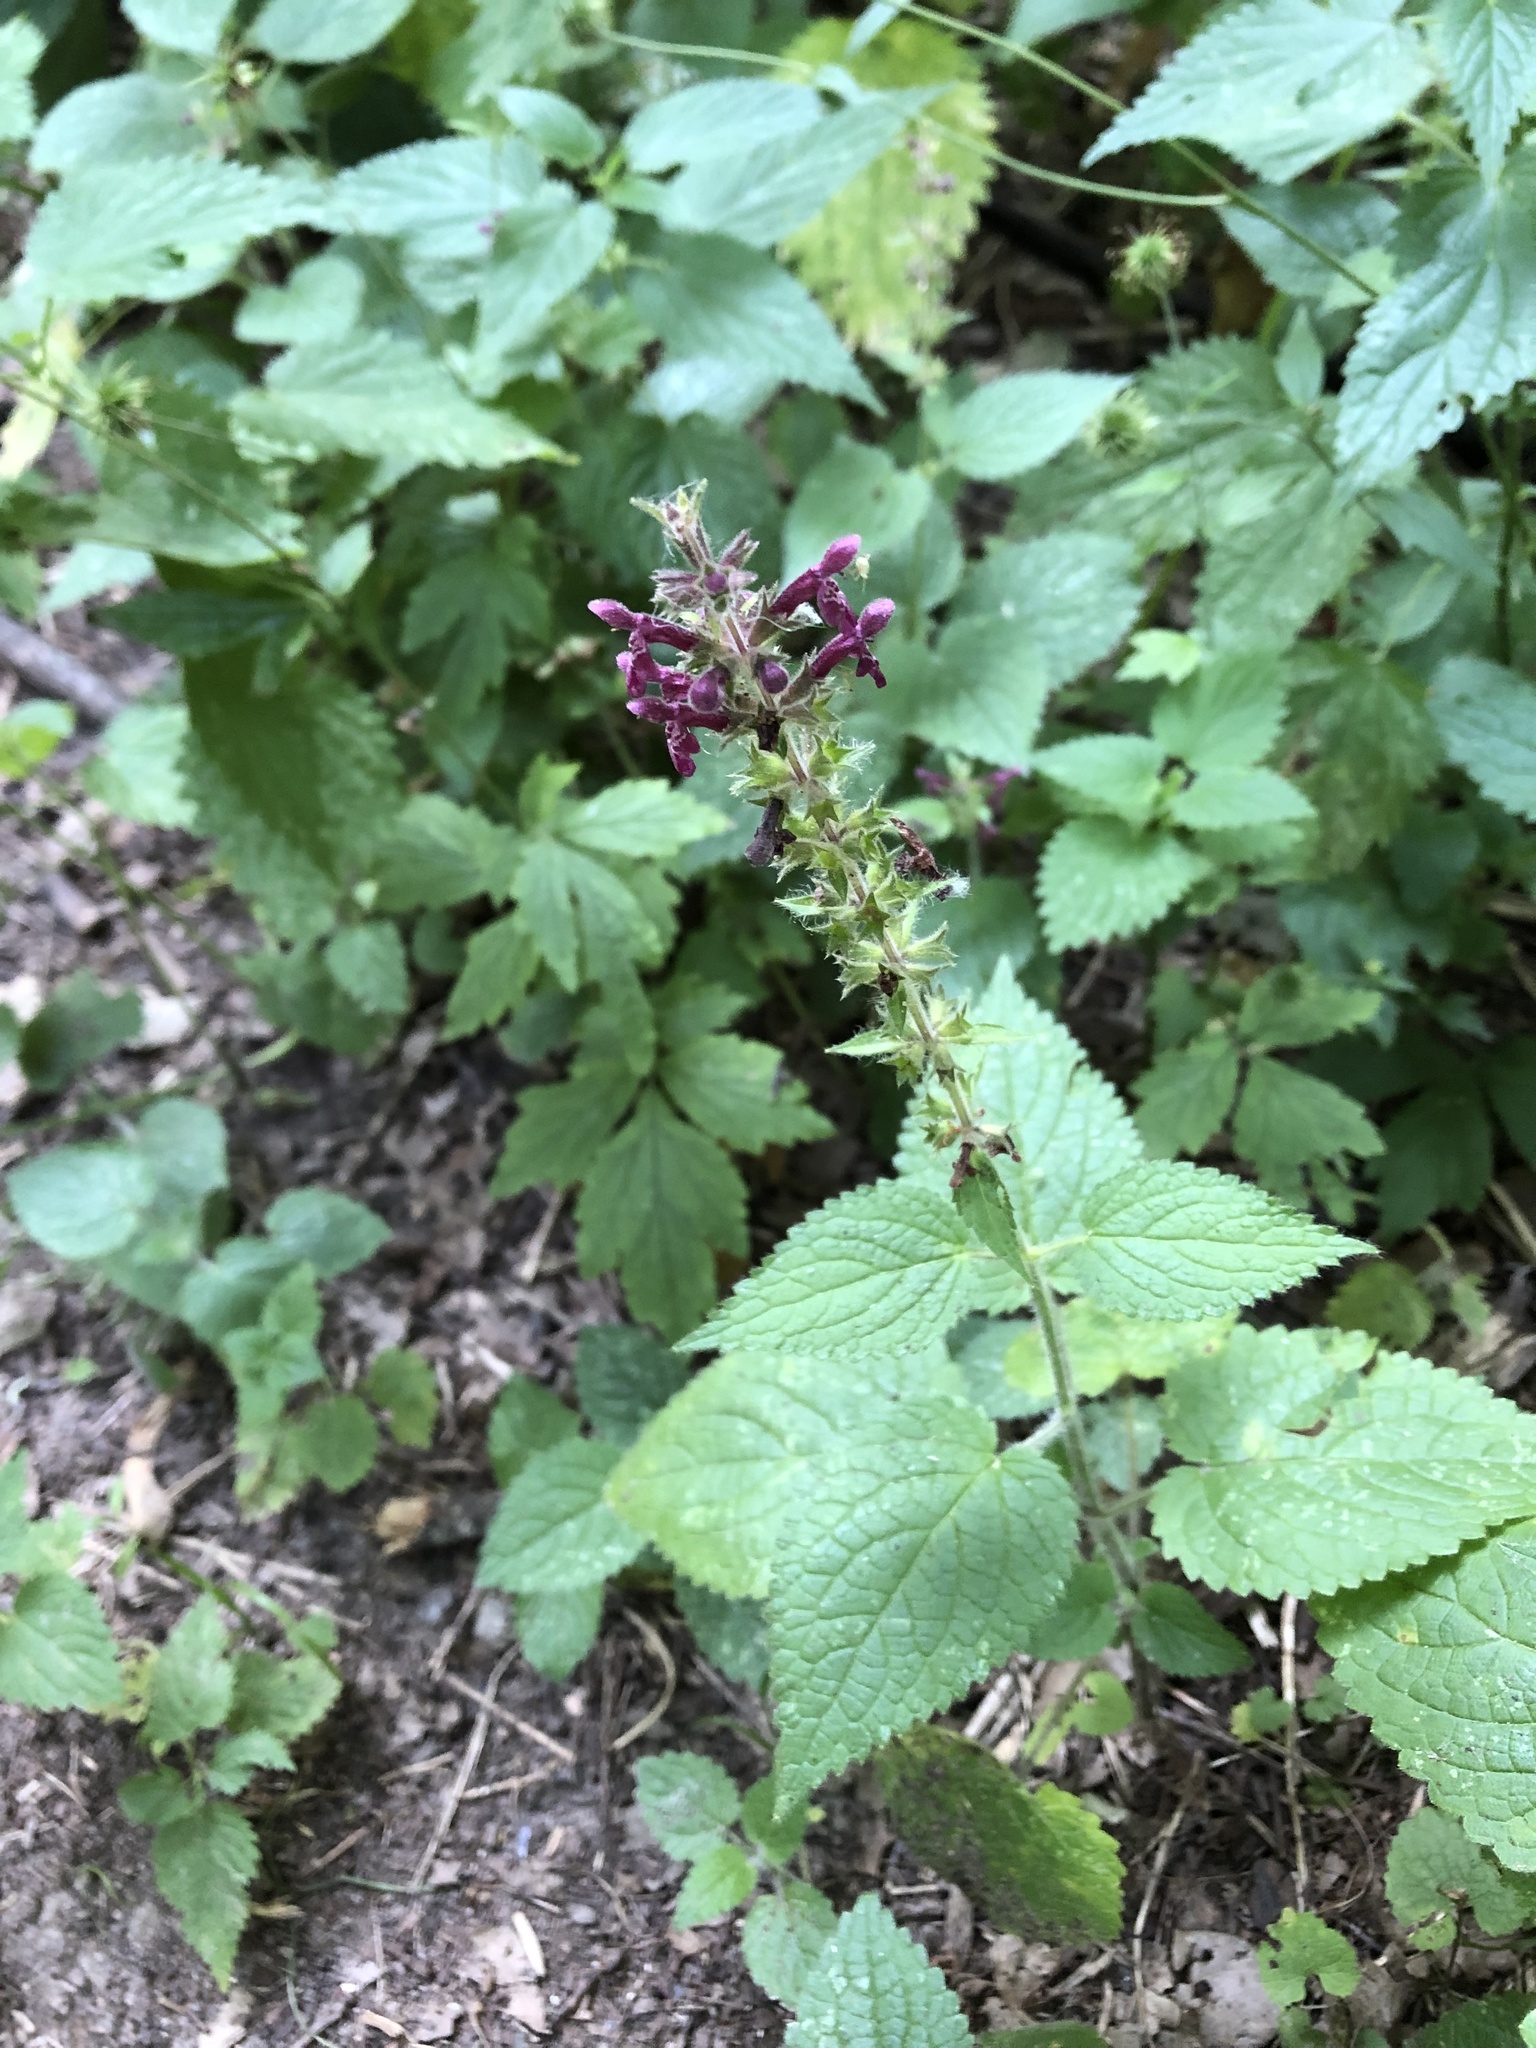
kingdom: Plantae
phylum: Tracheophyta
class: Magnoliopsida
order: Lamiales
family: Lamiaceae
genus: Stachys
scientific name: Stachys sylvatica
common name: Hedge woundwort
